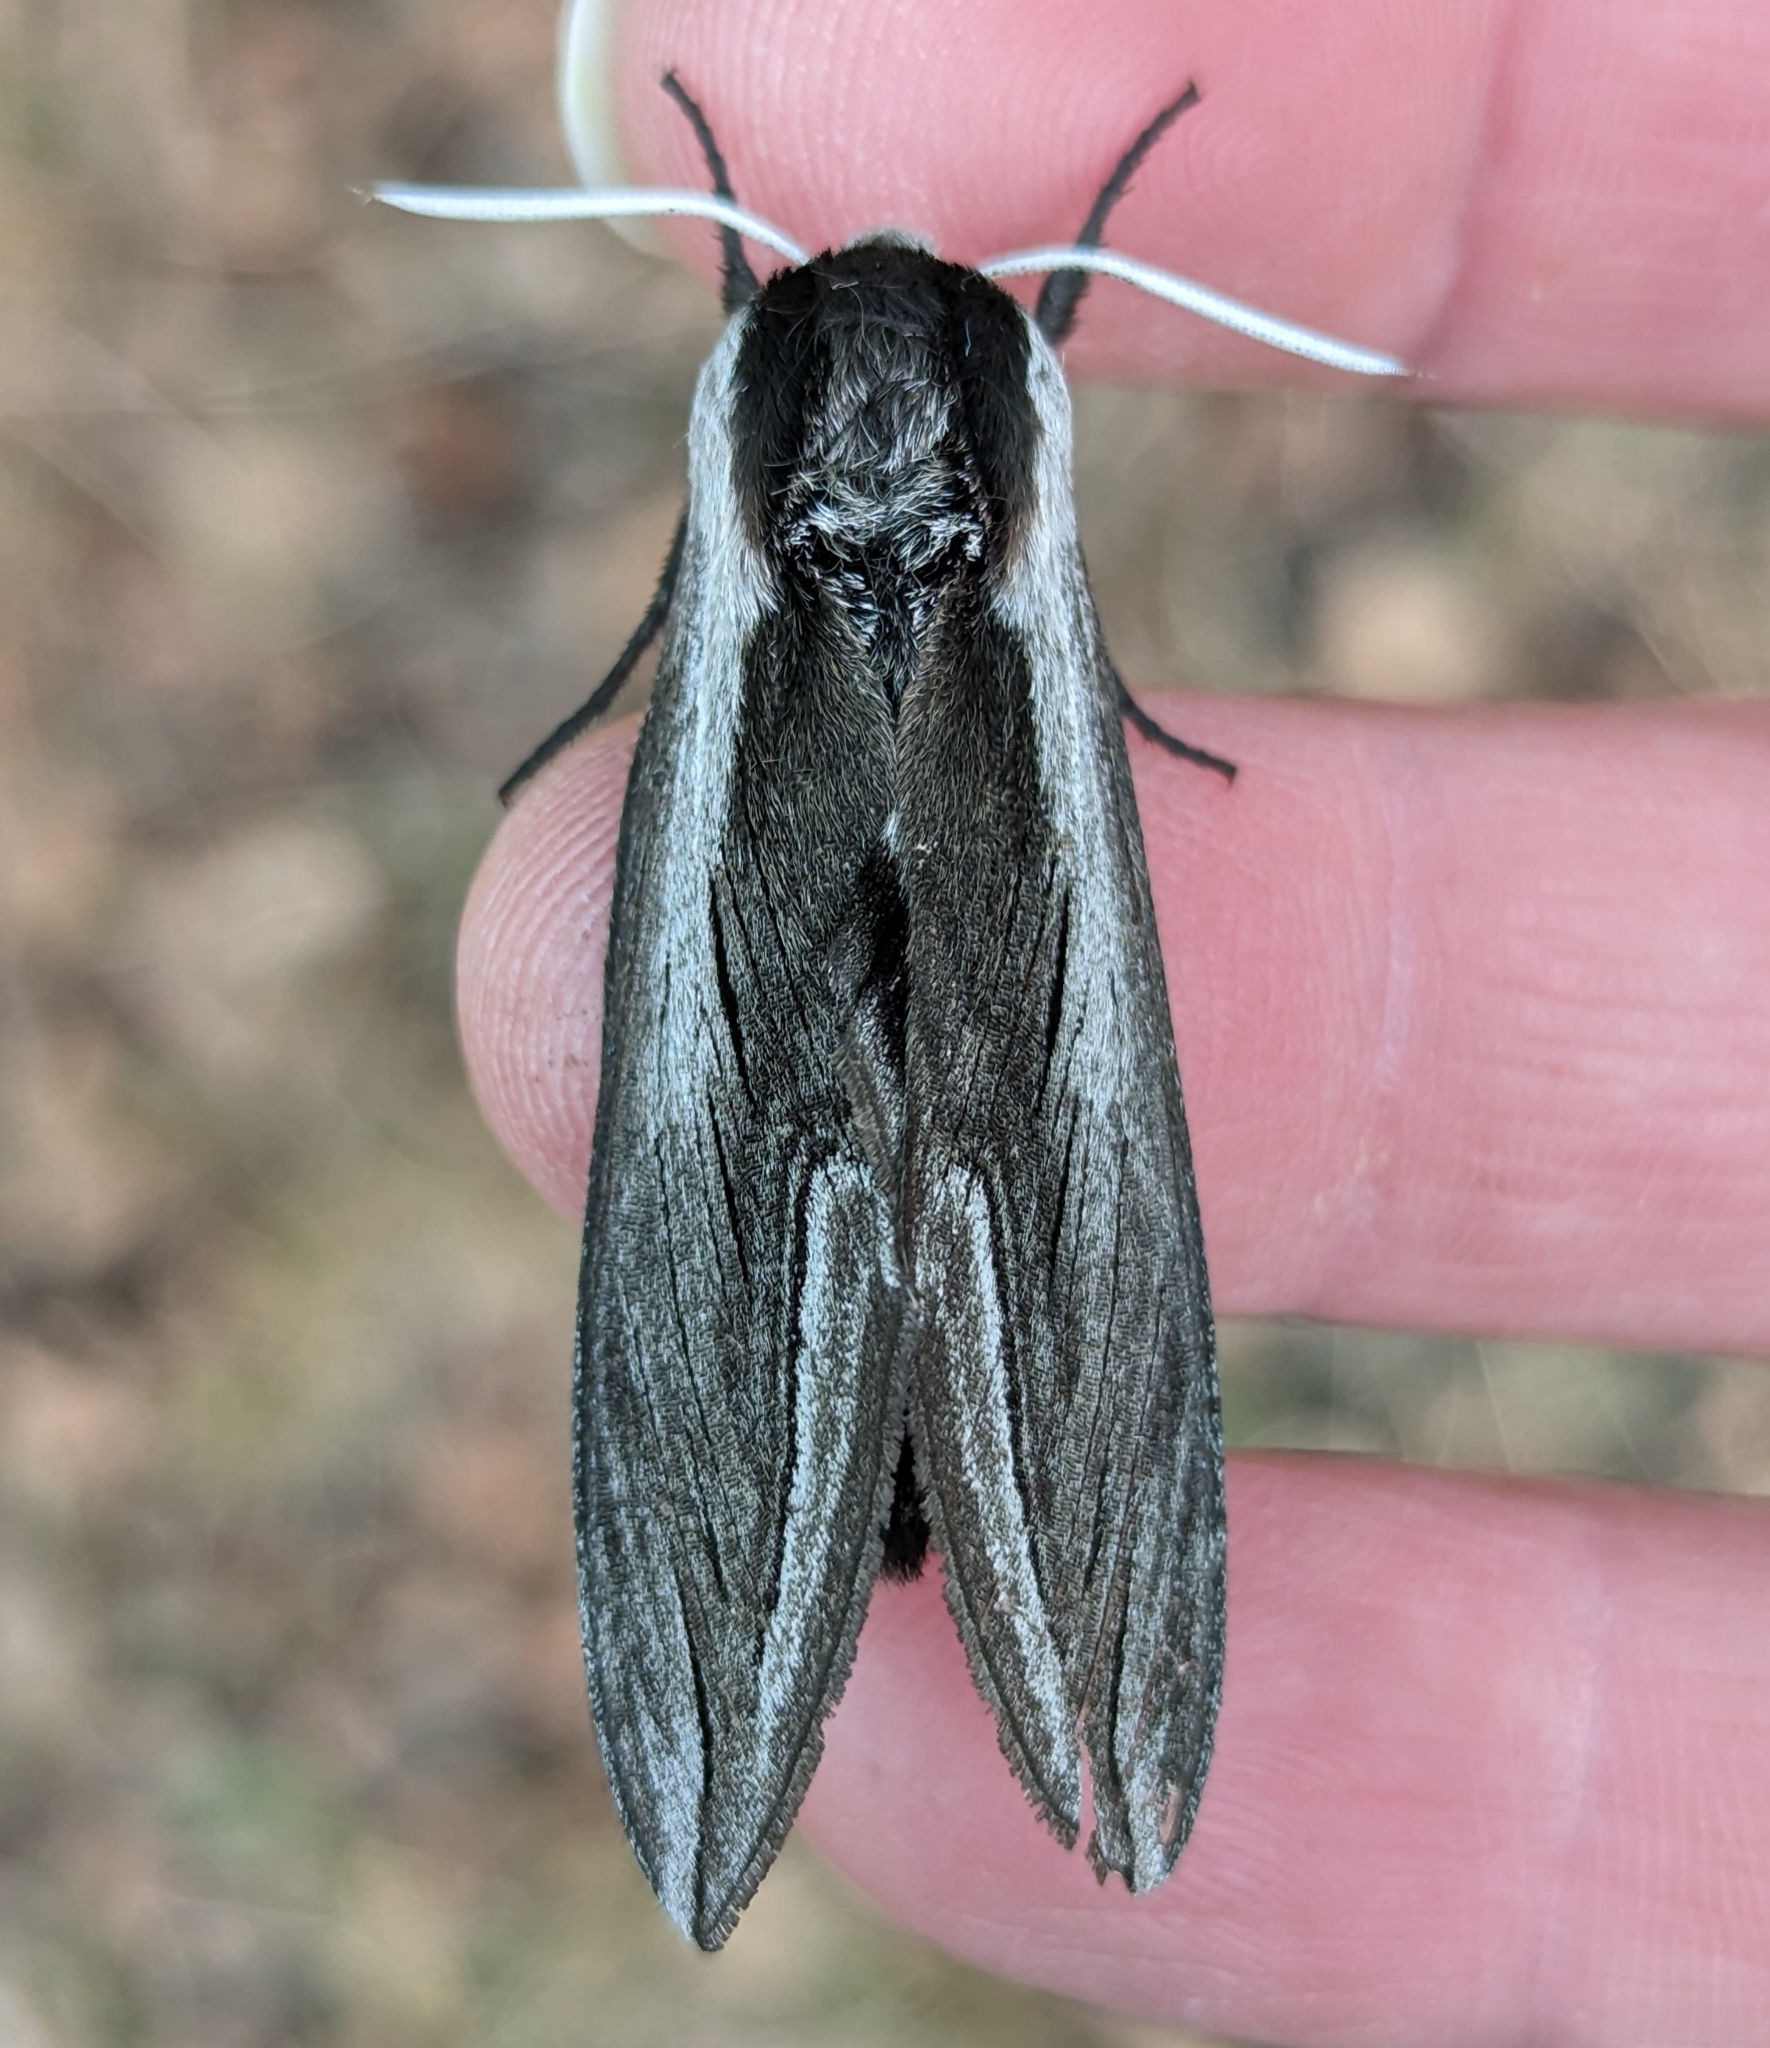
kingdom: Animalia
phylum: Arthropoda
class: Insecta
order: Lepidoptera
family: Sphingidae
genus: Sphinx
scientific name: Sphinx vashti
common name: Snowberry sphinx
